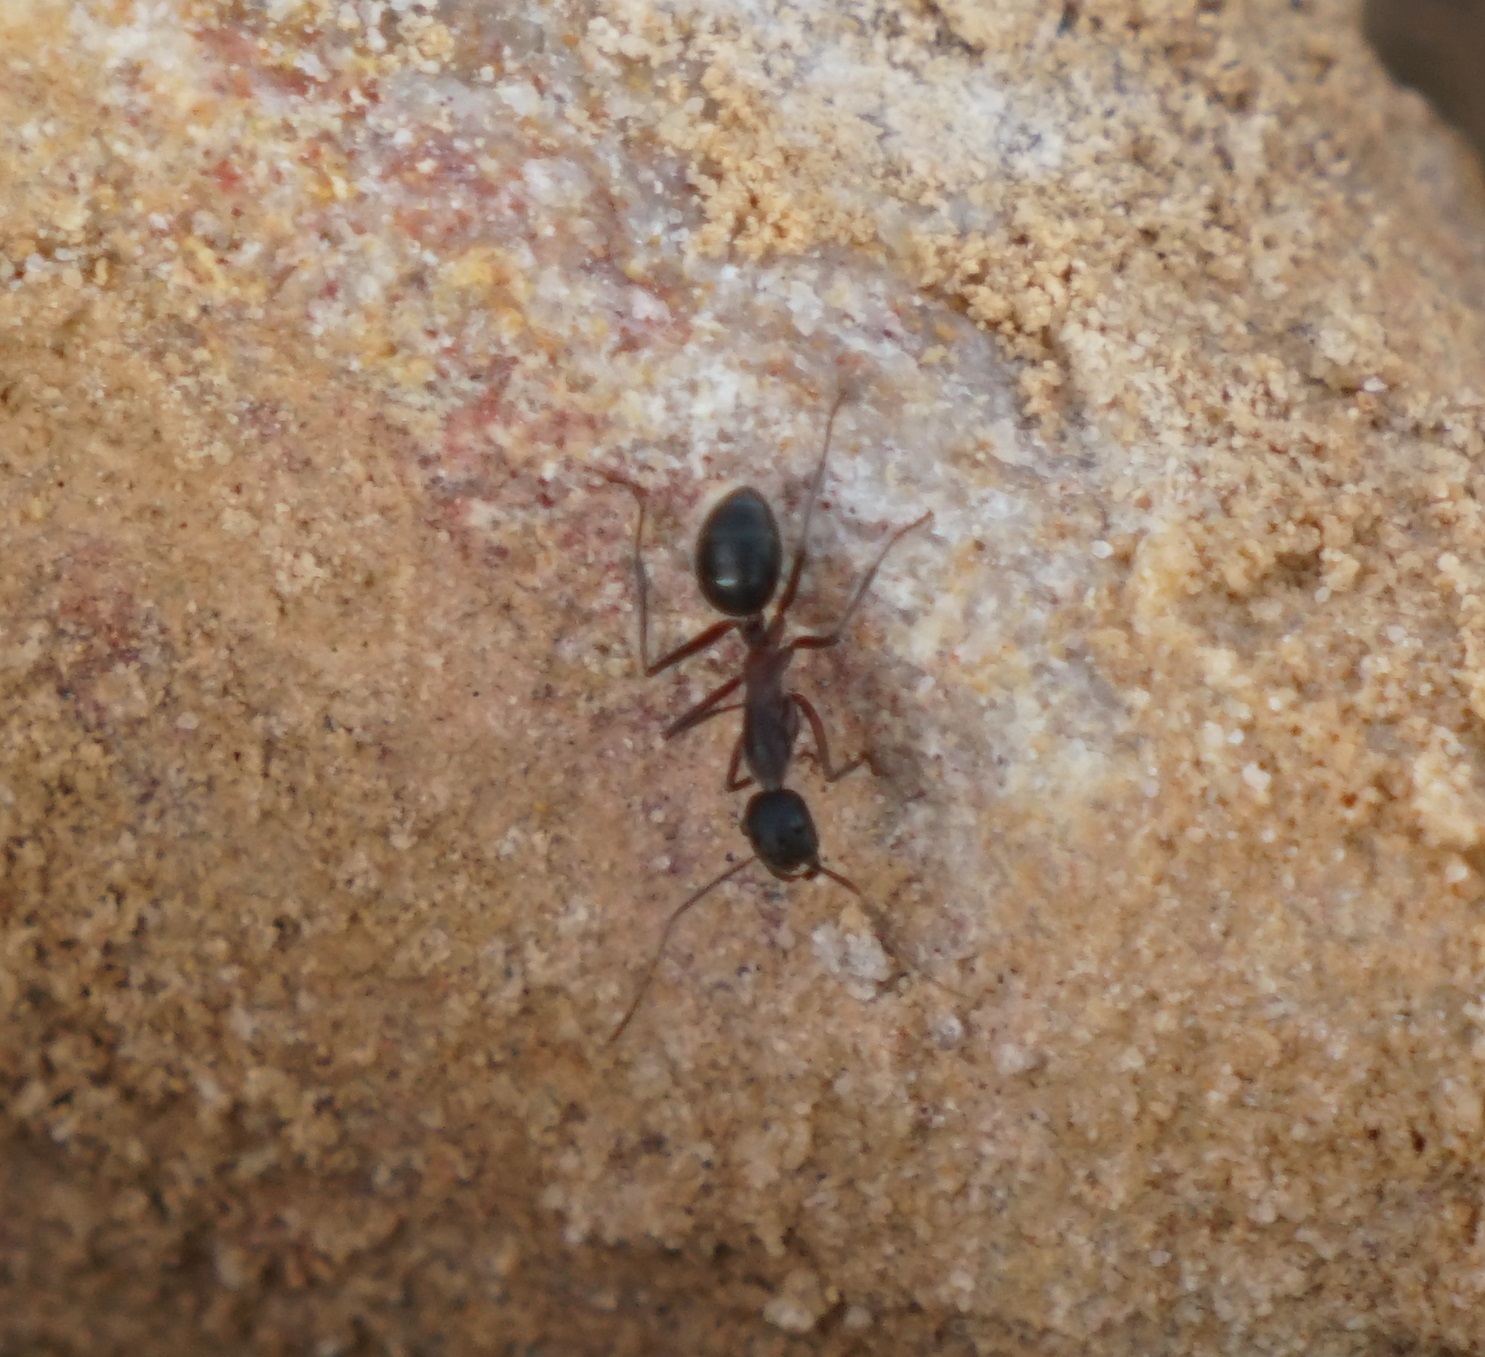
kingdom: Animalia
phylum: Arthropoda
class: Insecta
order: Hymenoptera
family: Formicidae
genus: Camponotus
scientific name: Camponotus intrepidus
